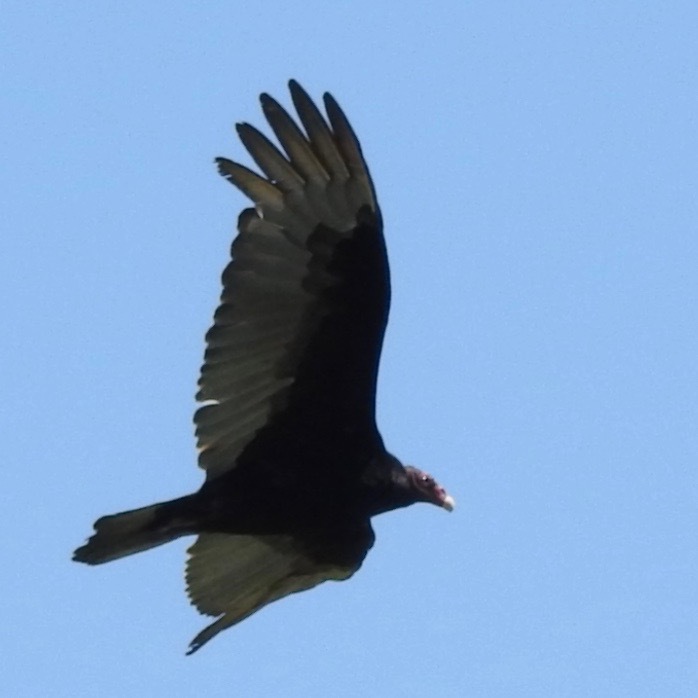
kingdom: Animalia
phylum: Chordata
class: Aves
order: Accipitriformes
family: Cathartidae
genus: Cathartes
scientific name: Cathartes aura
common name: Turkey vulture
